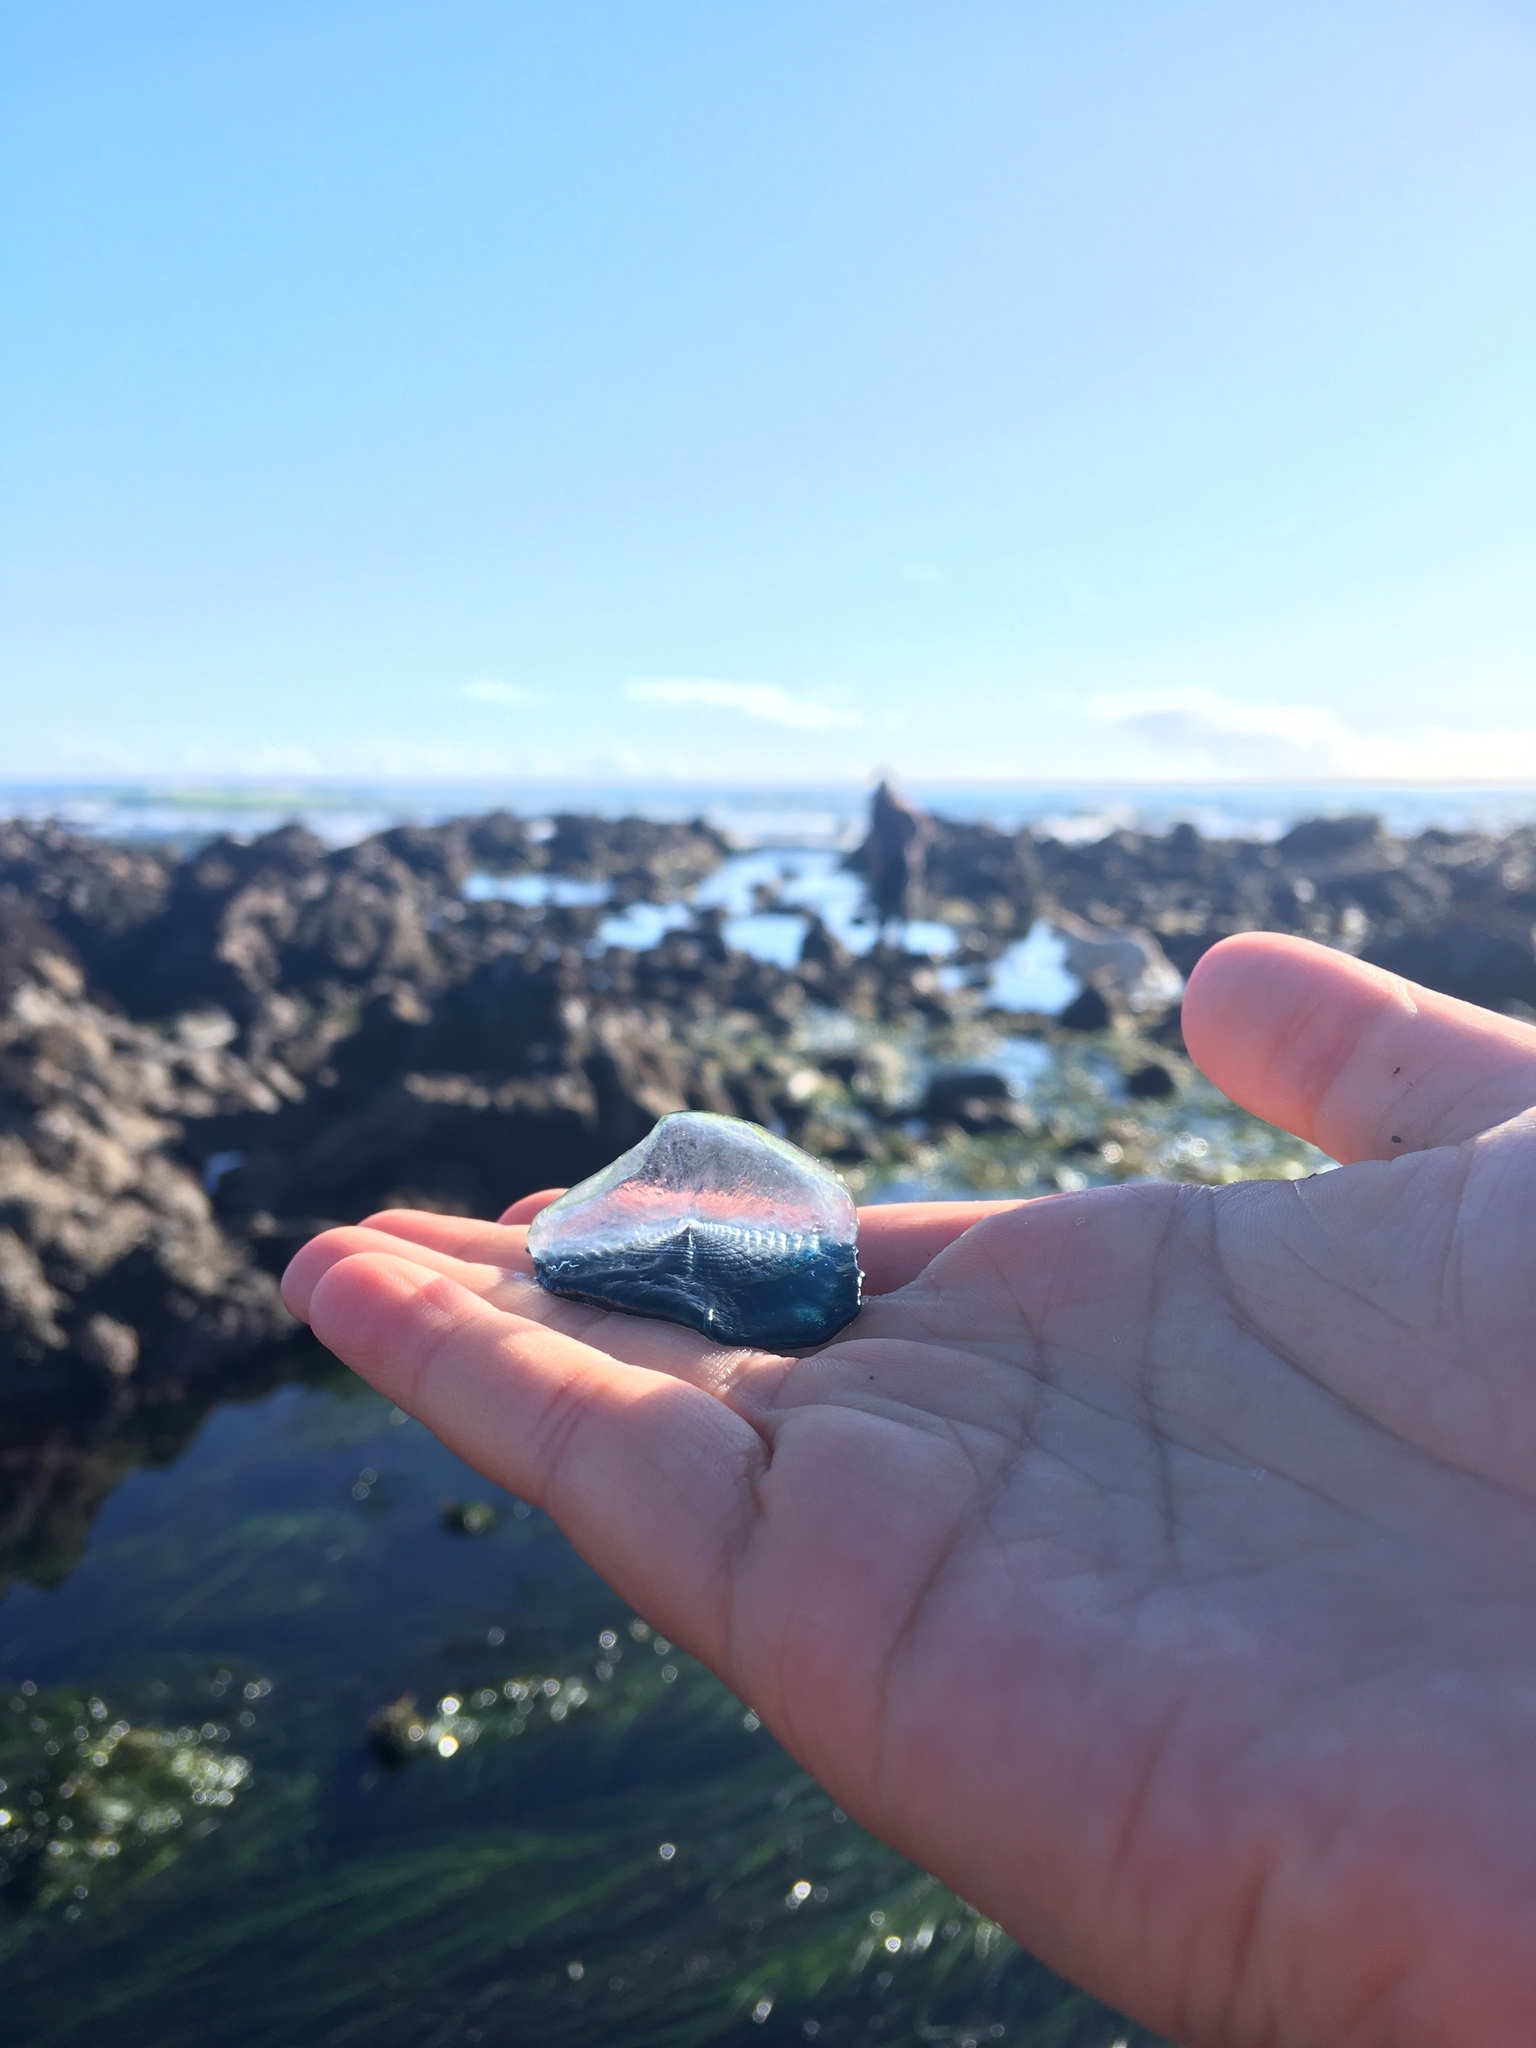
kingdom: Animalia
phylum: Cnidaria
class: Hydrozoa
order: Anthoathecata
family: Porpitidae
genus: Velella
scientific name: Velella velella
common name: By-the-wind-sailor
